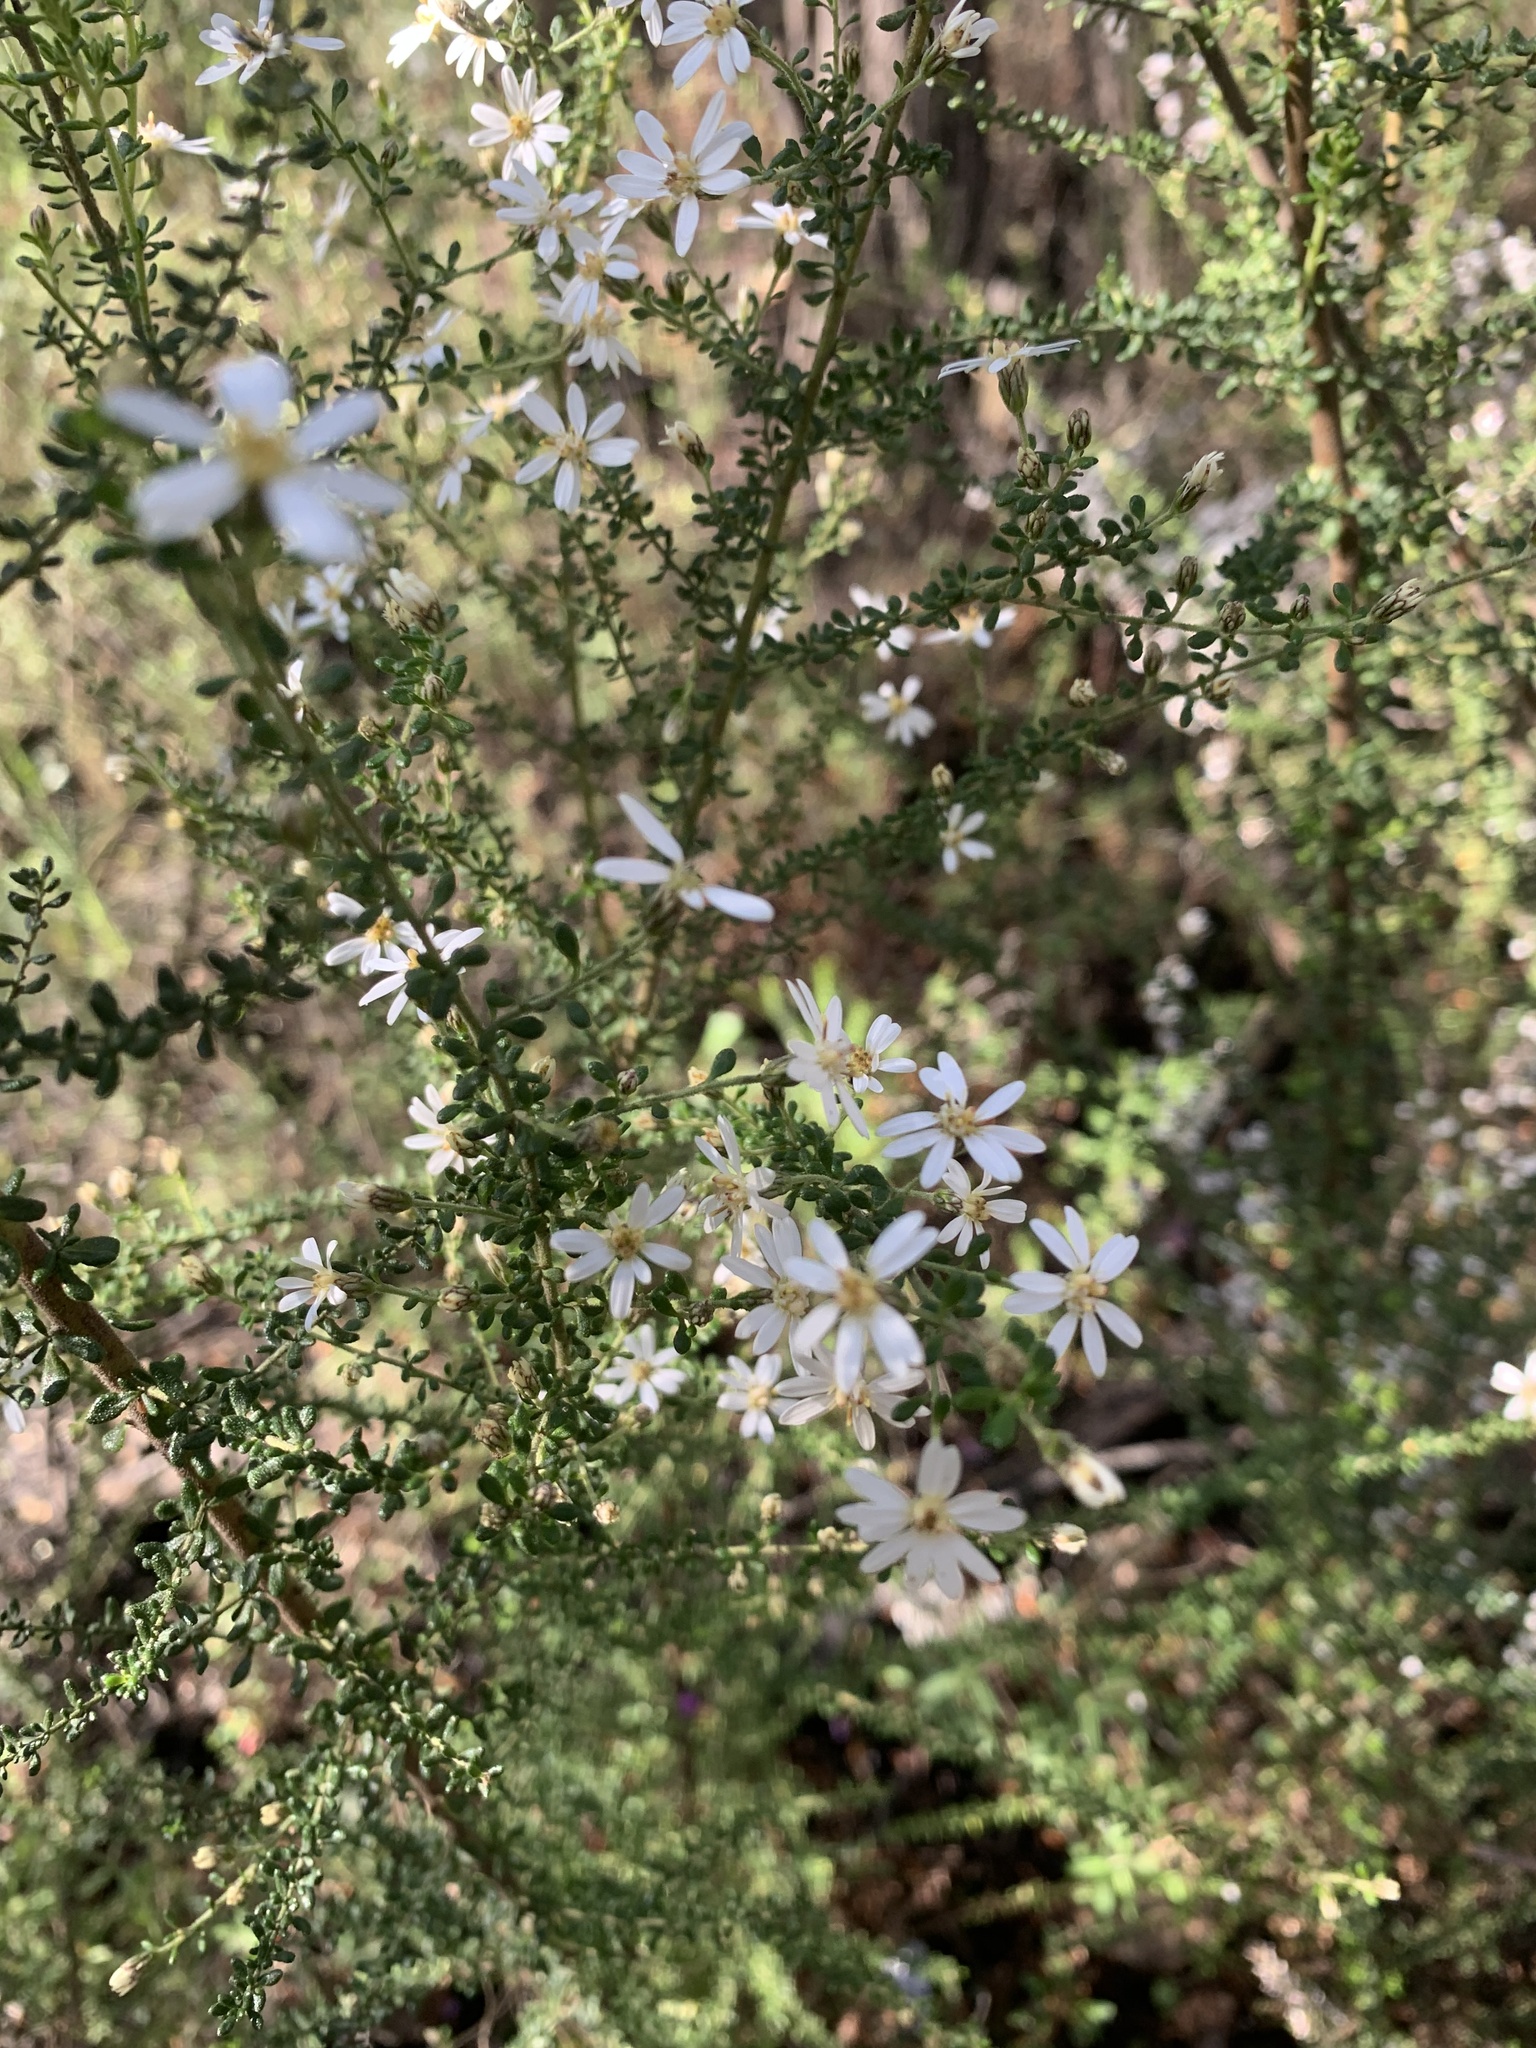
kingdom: Plantae
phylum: Tracheophyta
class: Magnoliopsida
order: Asterales
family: Asteraceae
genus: Olearia
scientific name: Olearia microphylla
